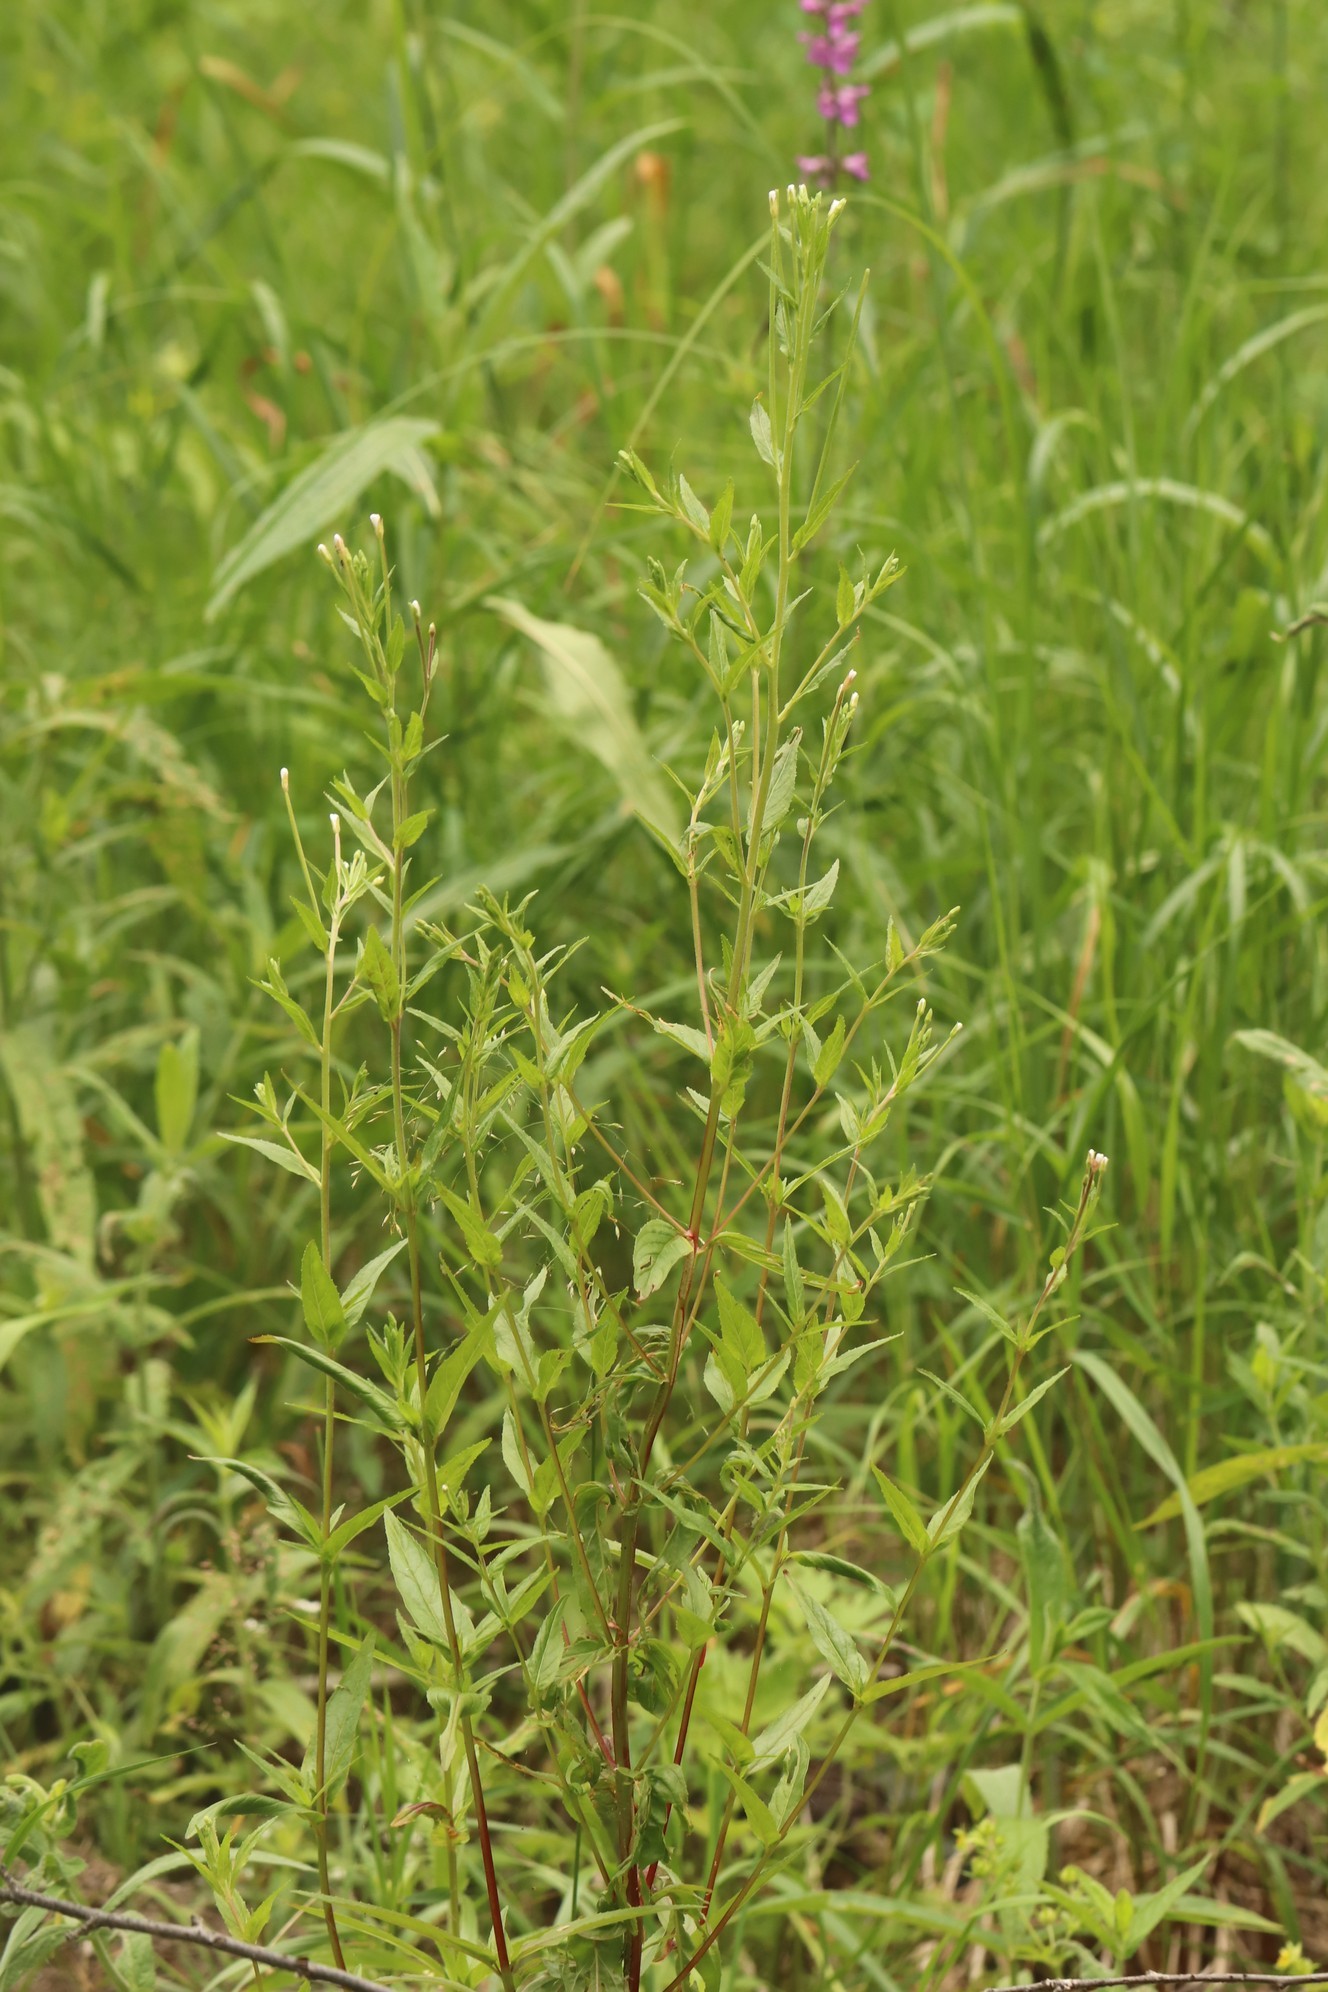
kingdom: Plantae
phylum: Tracheophyta
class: Magnoliopsida
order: Myrtales
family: Onagraceae
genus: Epilobium
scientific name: Epilobium pseudorubescens
